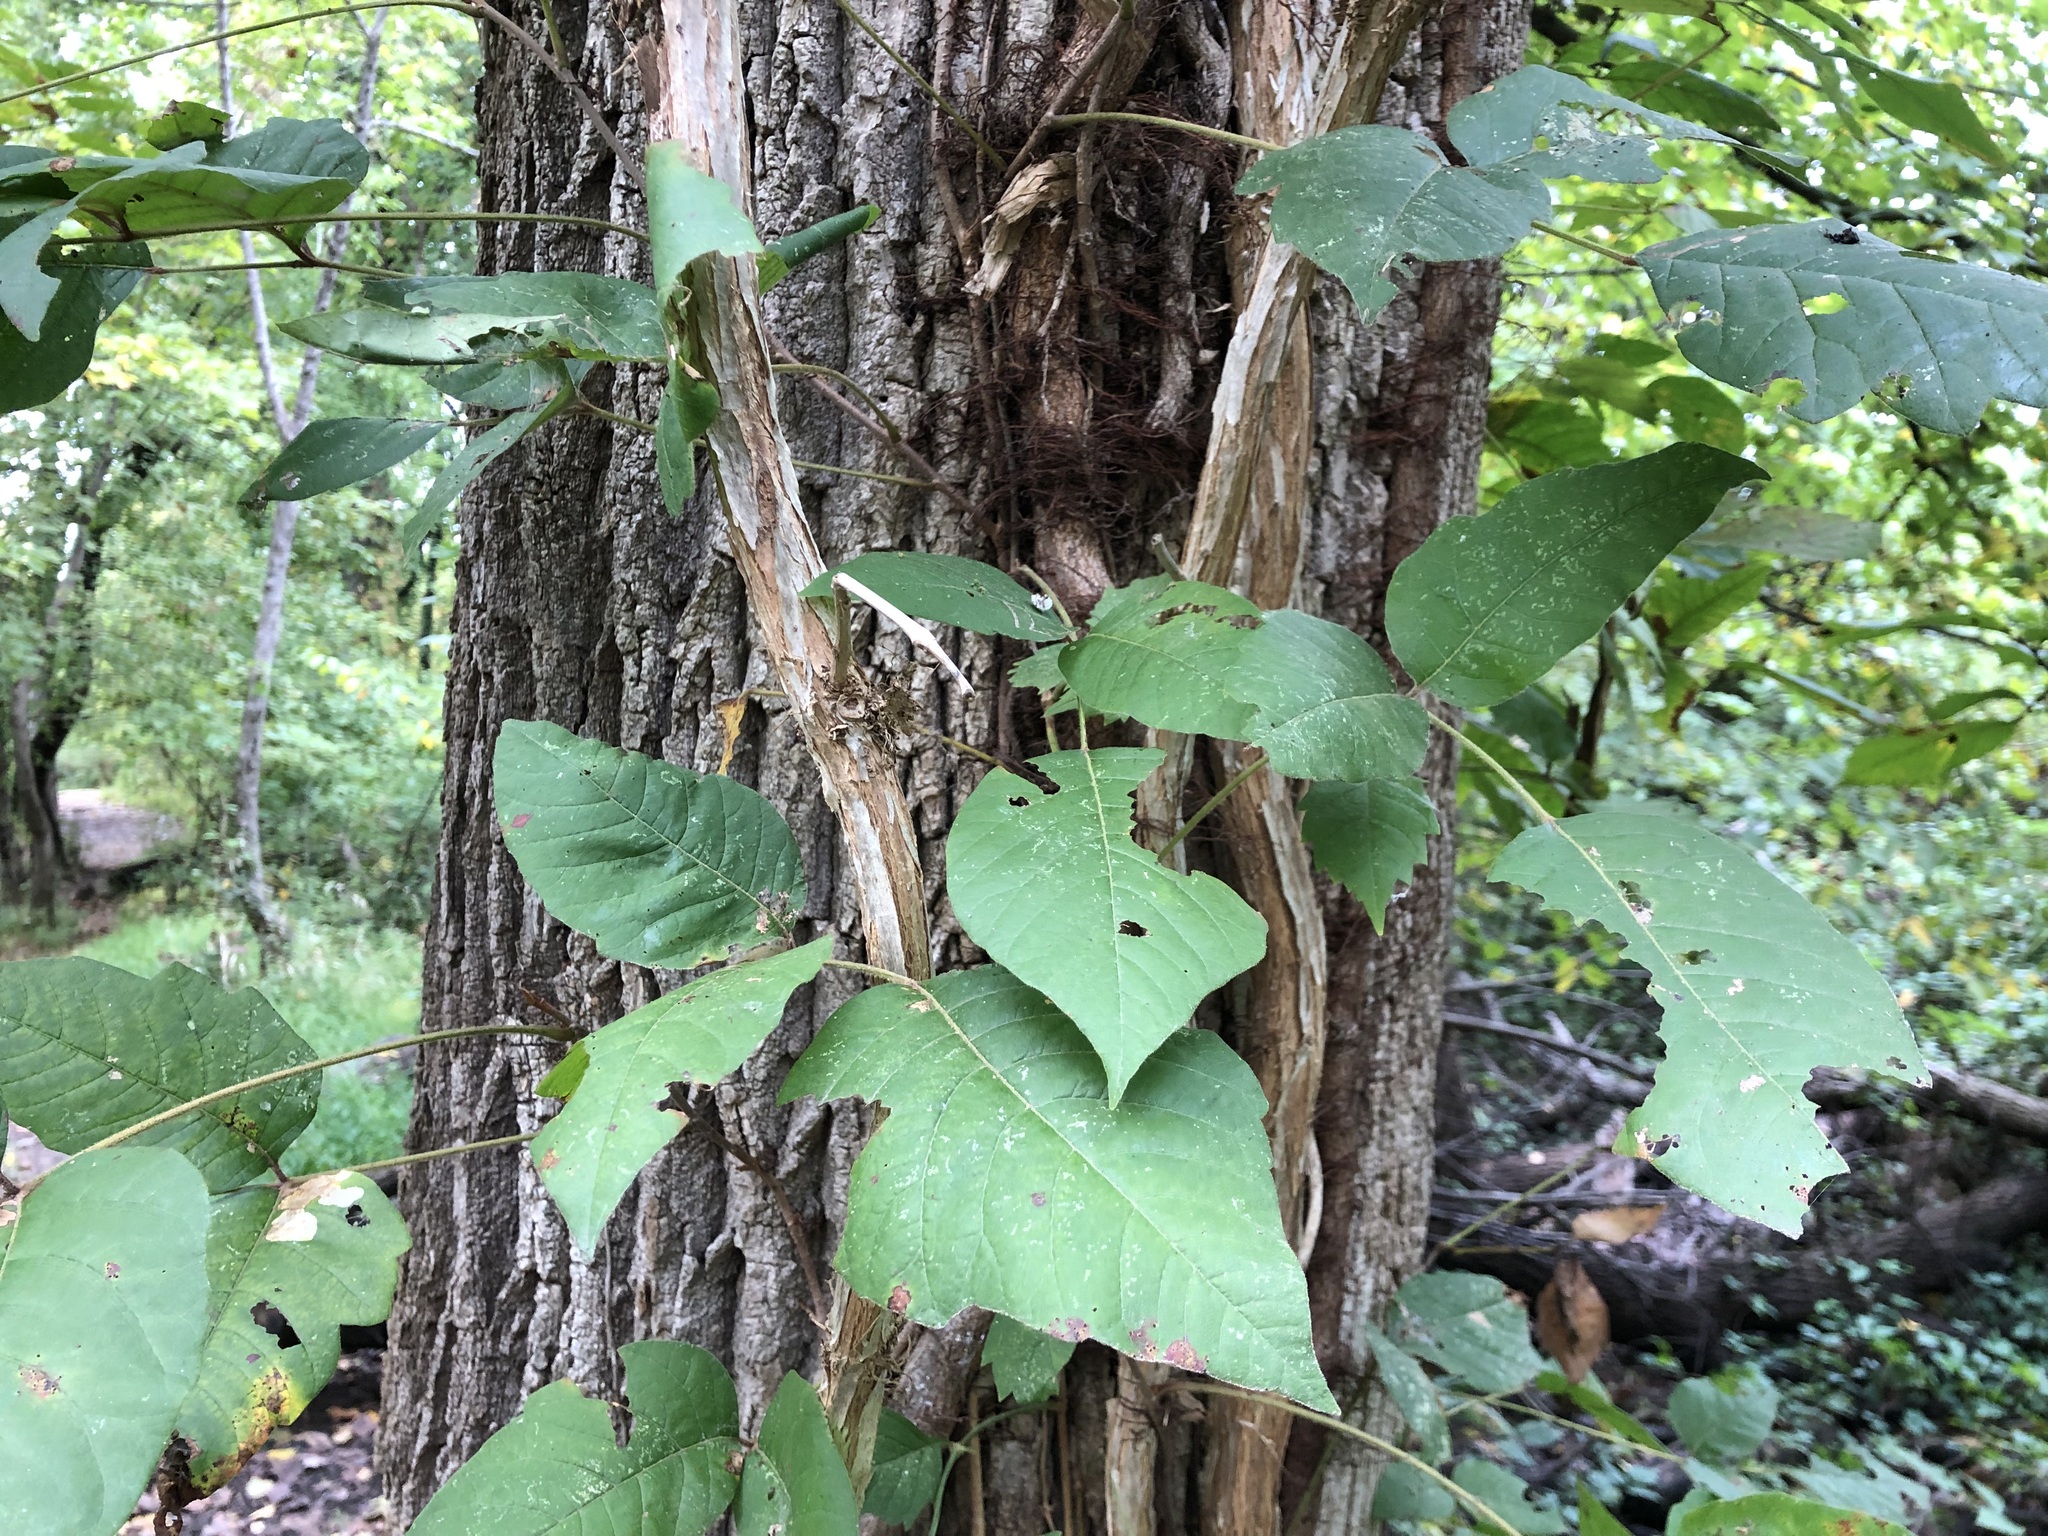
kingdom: Plantae
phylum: Tracheophyta
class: Magnoliopsida
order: Sapindales
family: Anacardiaceae
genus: Toxicodendron
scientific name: Toxicodendron radicans
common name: Poison ivy
